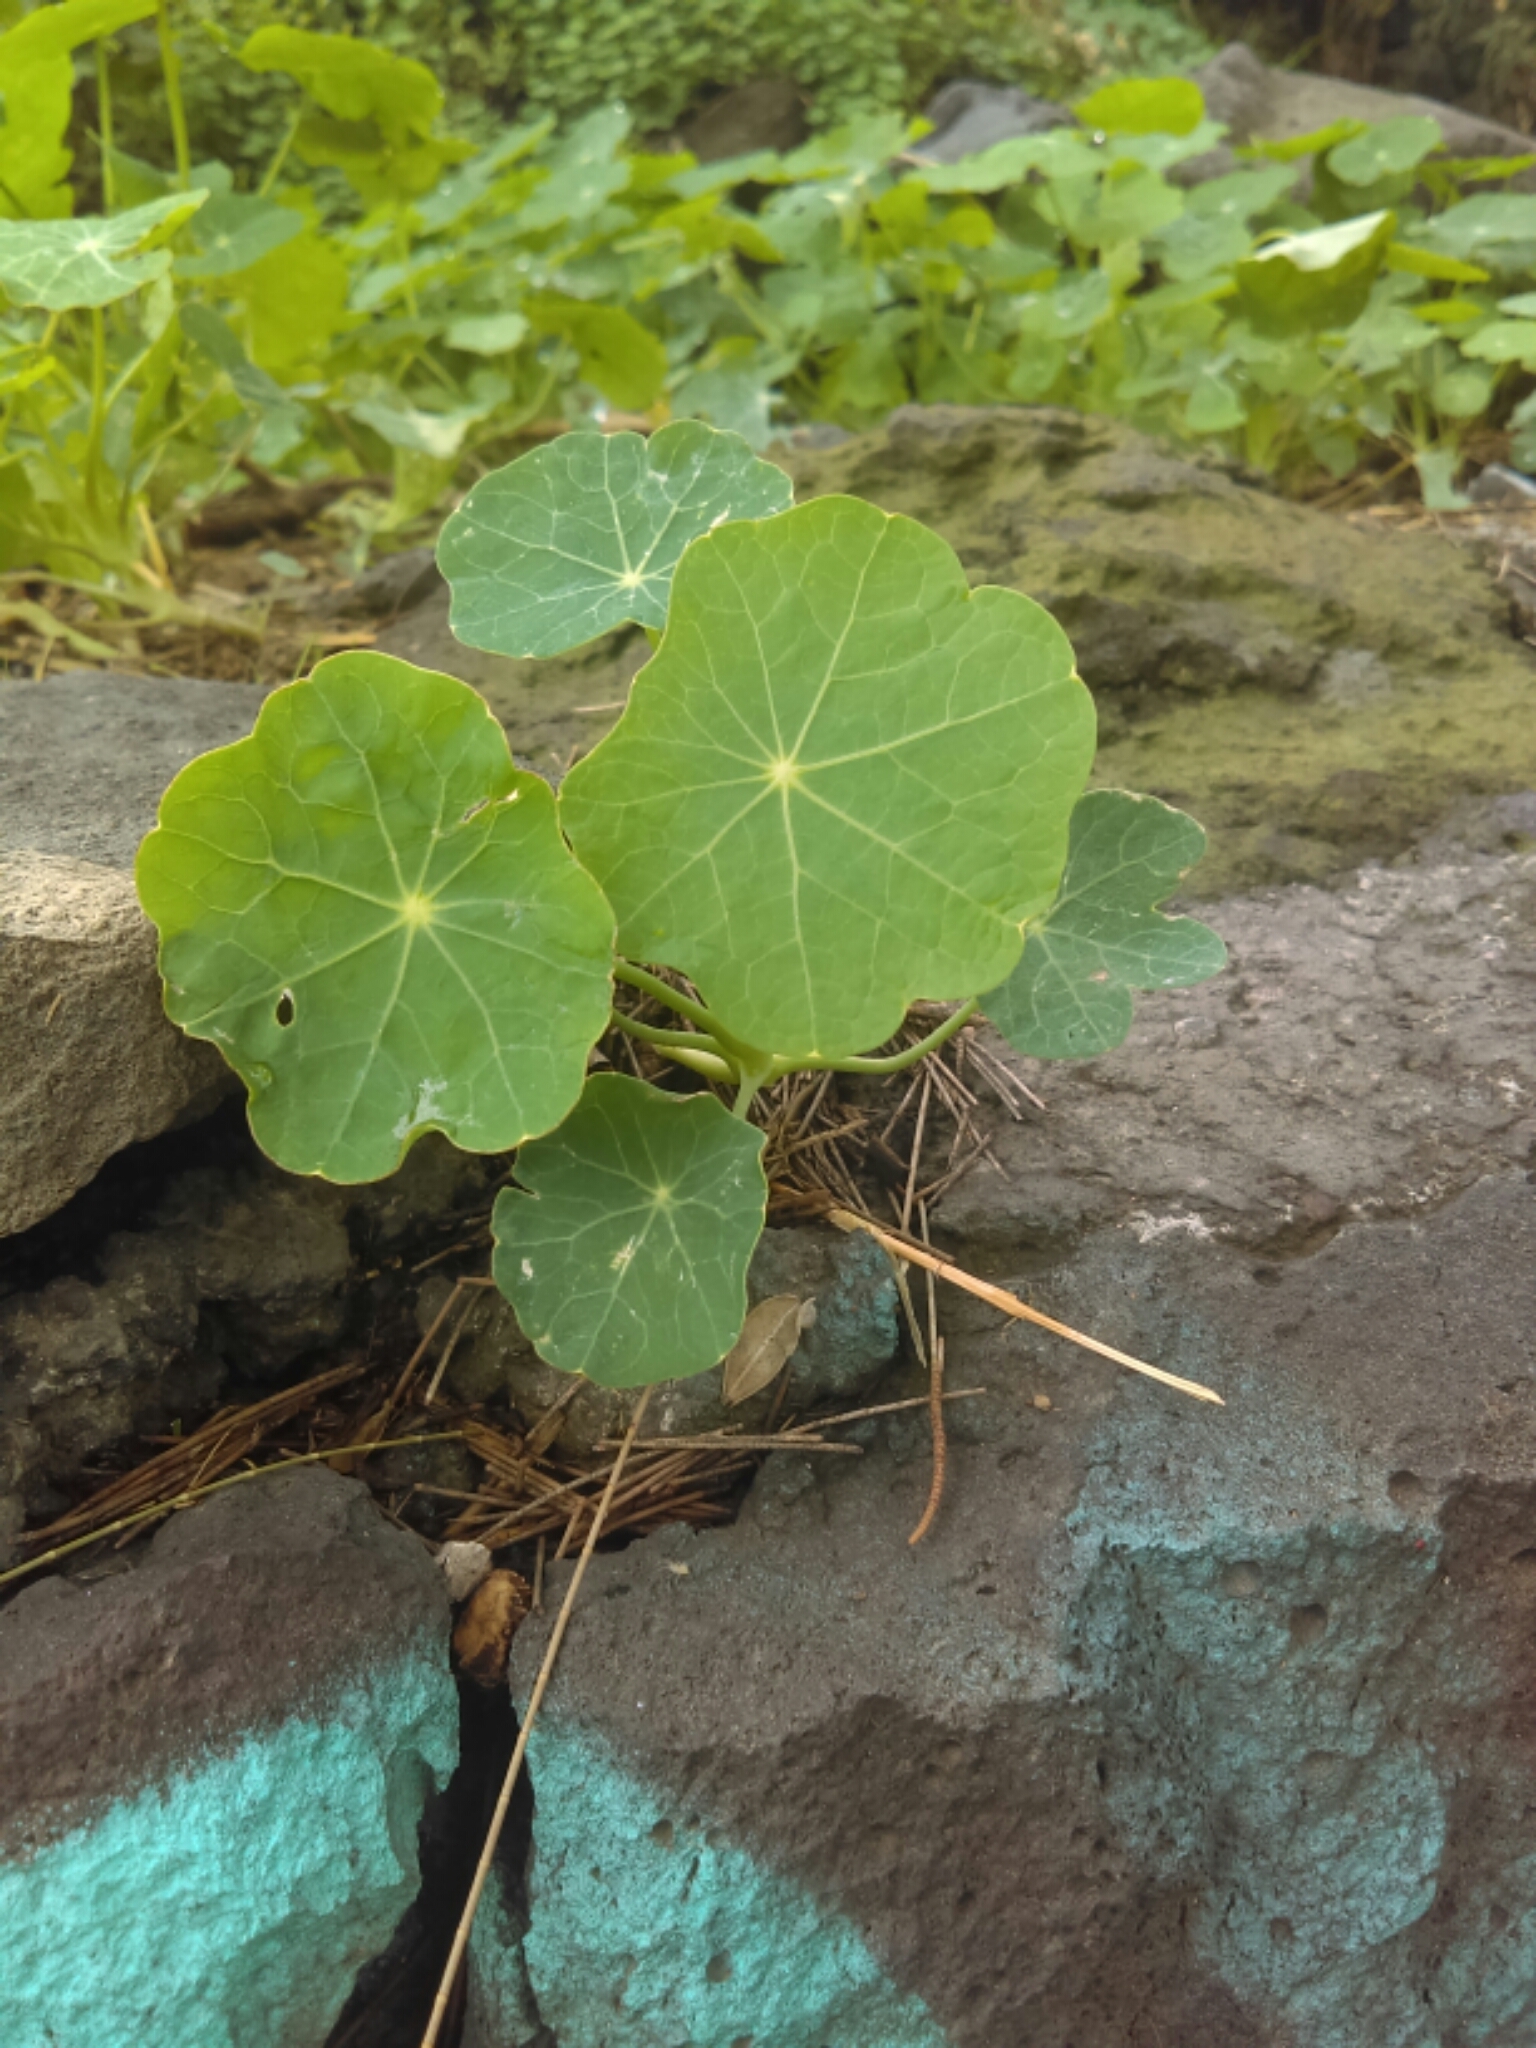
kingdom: Plantae
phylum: Tracheophyta
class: Magnoliopsida
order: Brassicales
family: Tropaeolaceae
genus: Tropaeolum
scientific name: Tropaeolum majus
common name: Nasturtium
